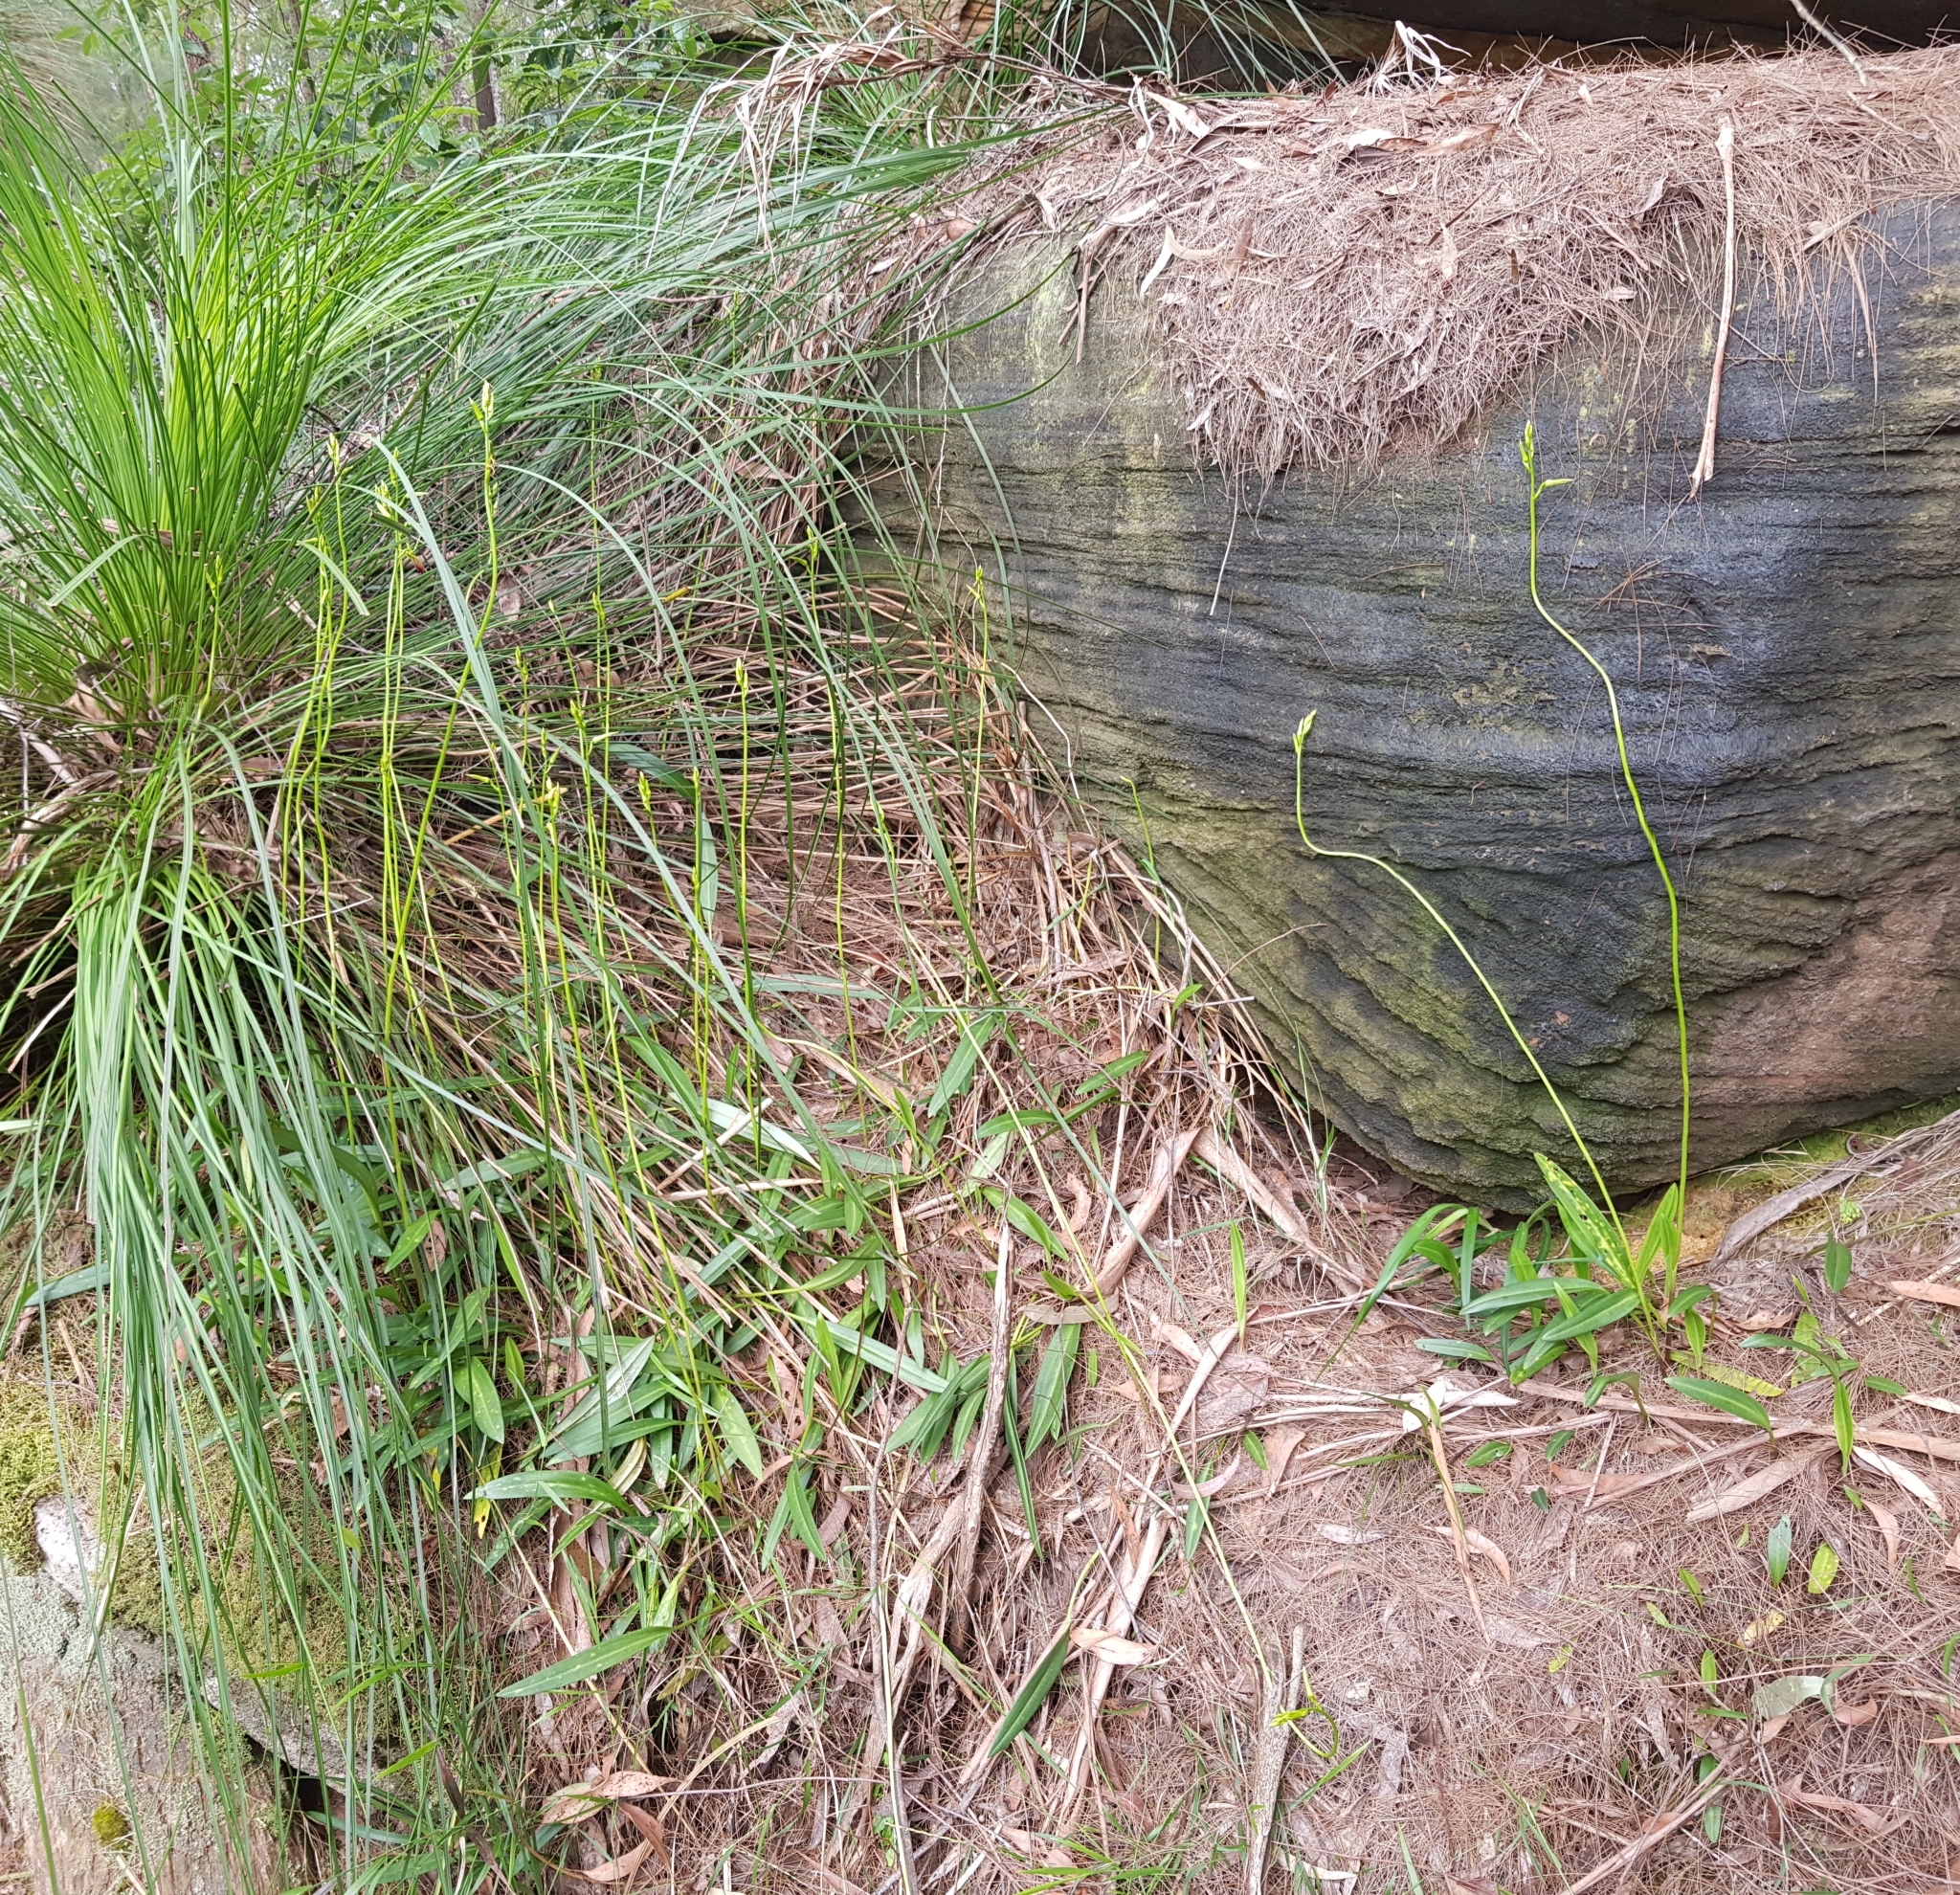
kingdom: Plantae
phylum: Tracheophyta
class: Liliopsida
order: Asparagales
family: Orchidaceae
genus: Cryptostylis
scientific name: Cryptostylis subulata
